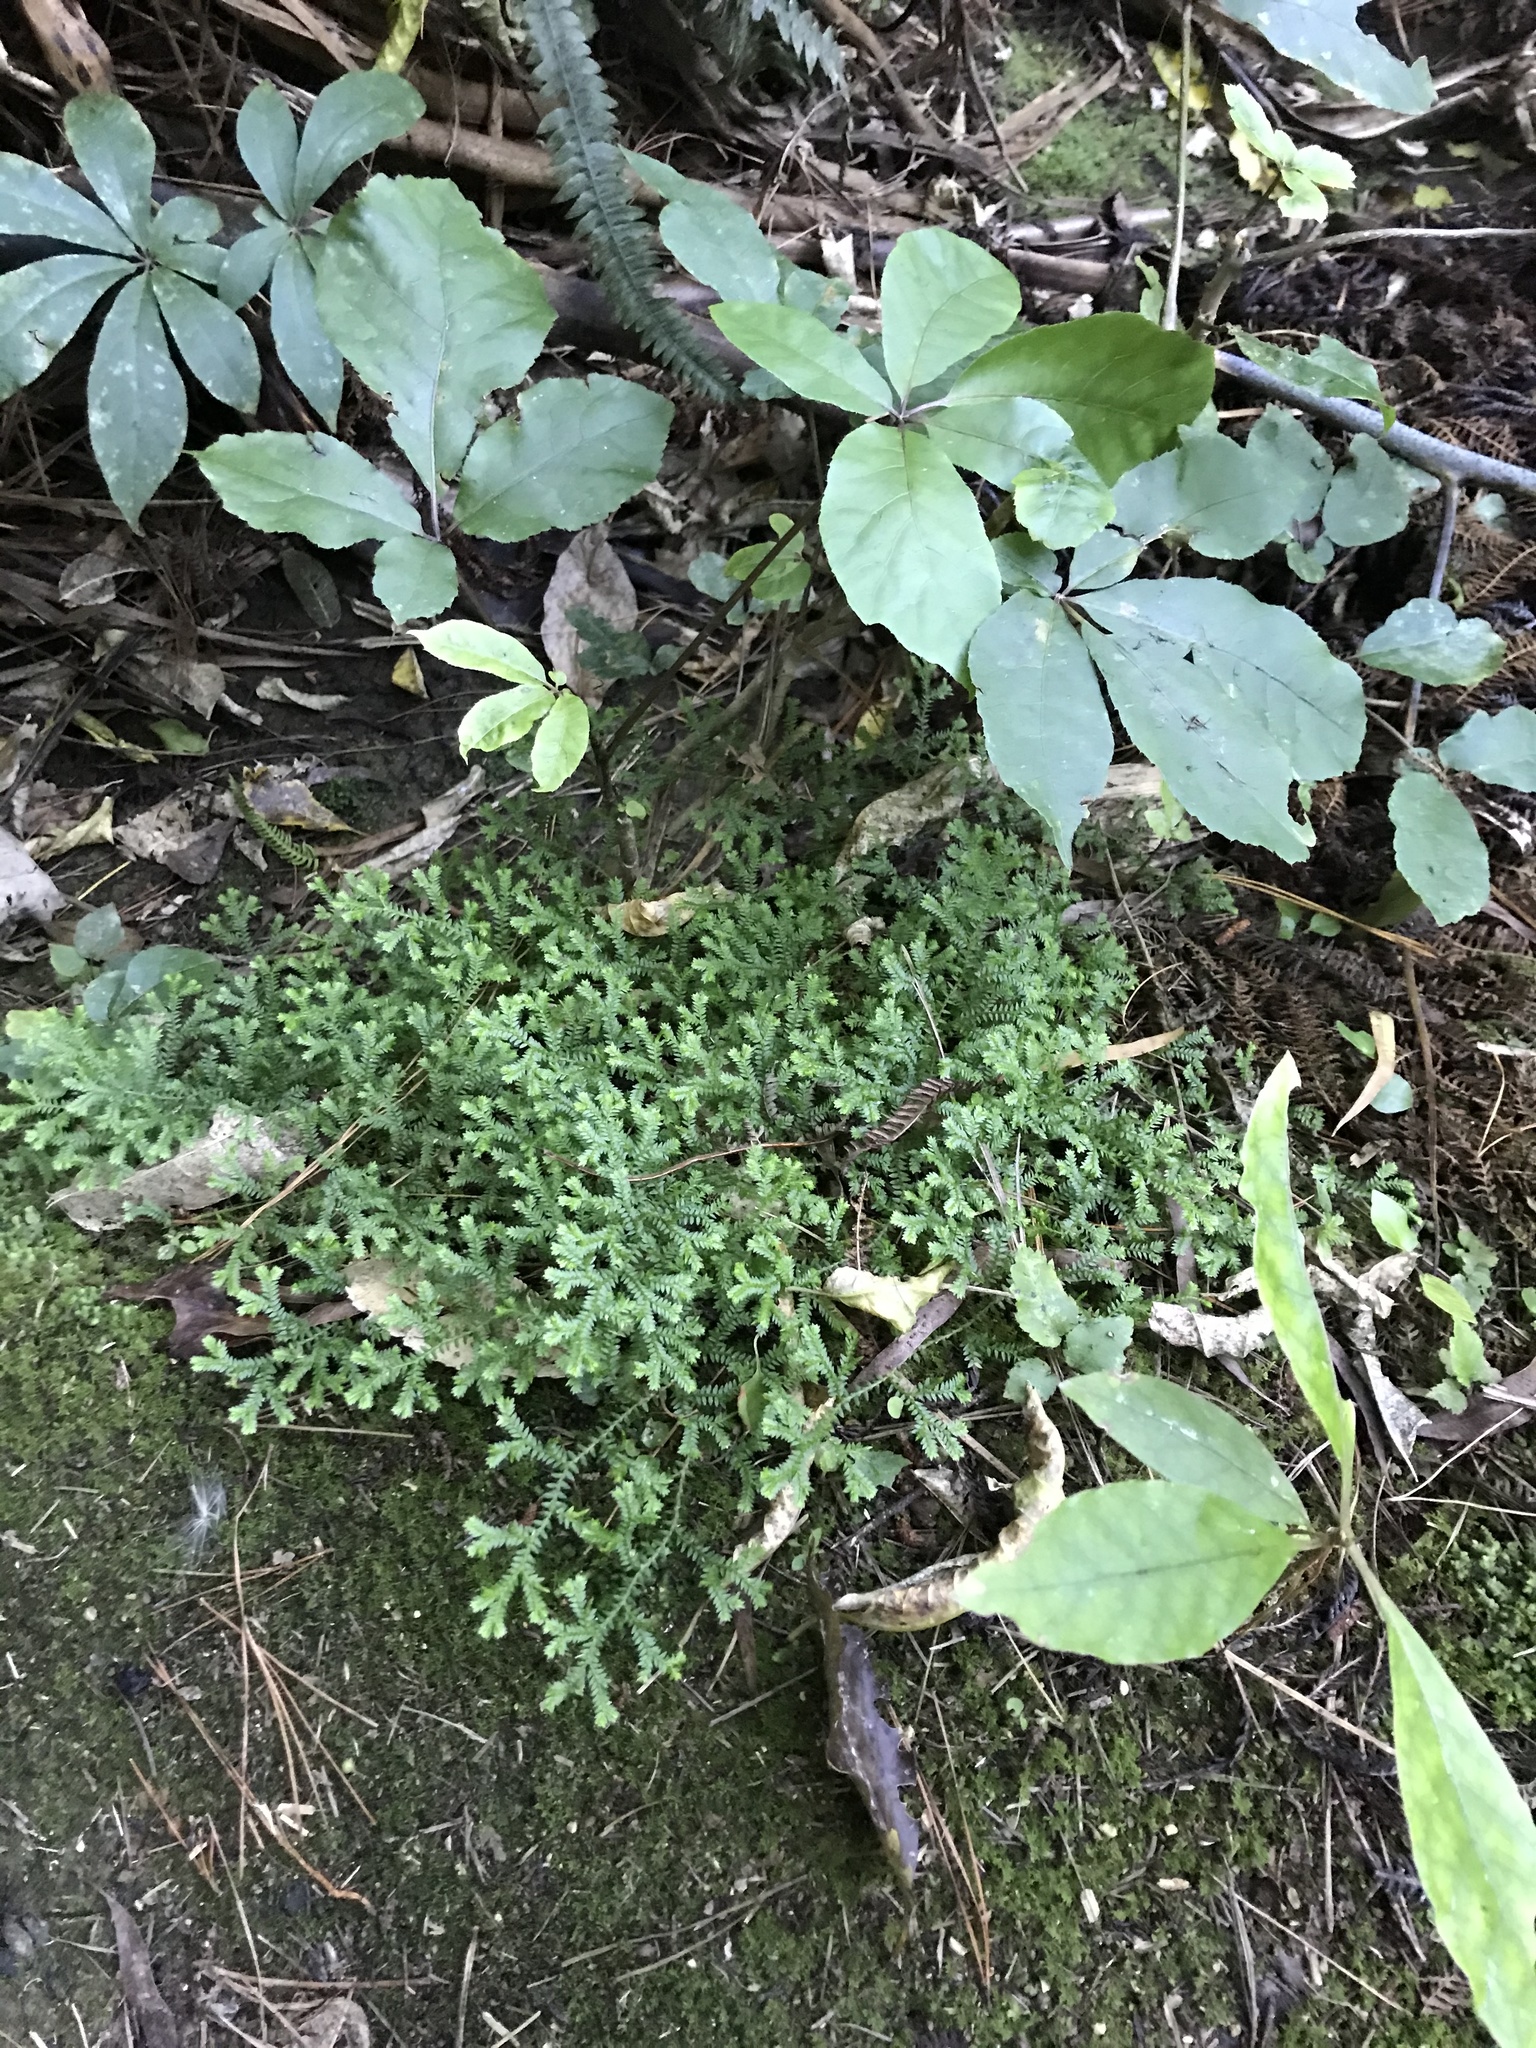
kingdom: Plantae
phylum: Tracheophyta
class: Lycopodiopsida
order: Selaginellales
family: Selaginellaceae
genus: Selaginella
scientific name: Selaginella kraussiana
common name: Krauss' spikemoss
